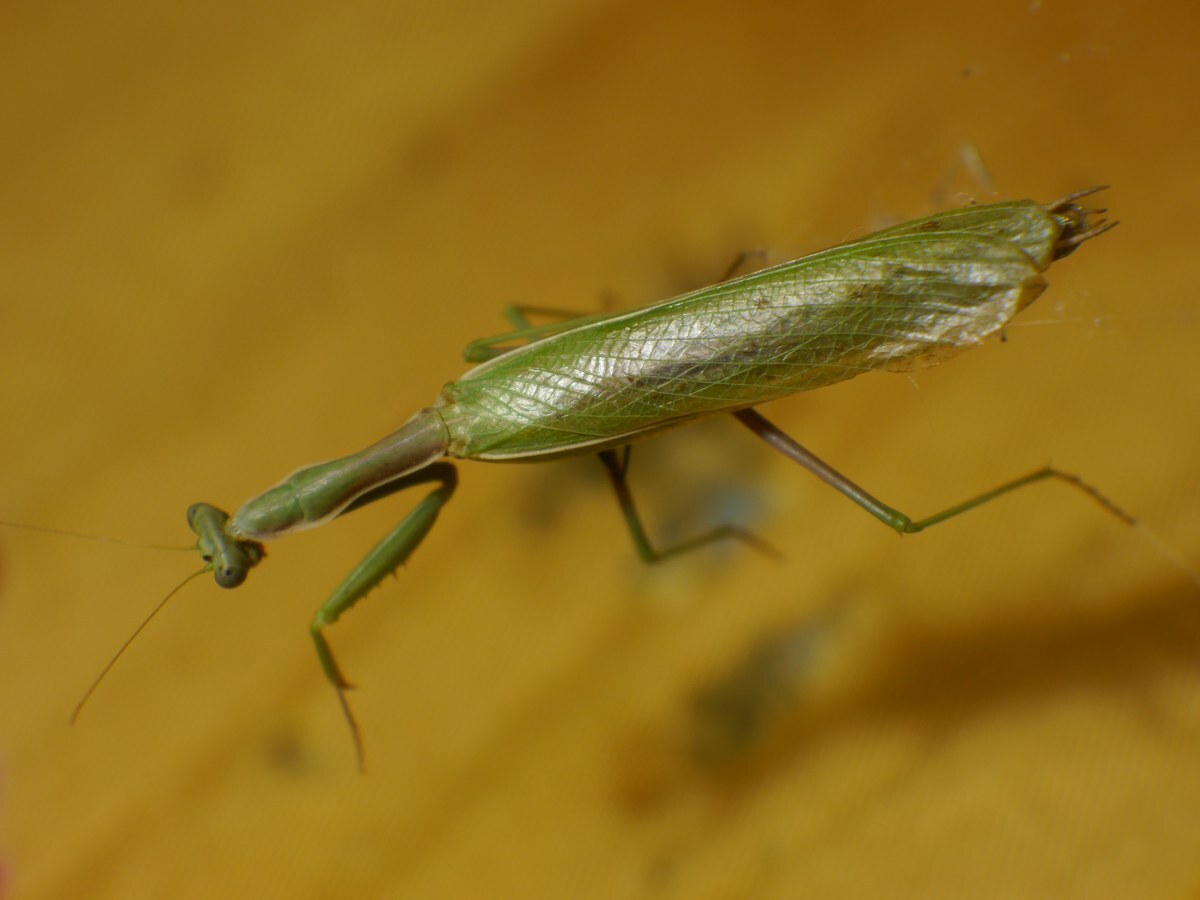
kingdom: Animalia
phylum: Arthropoda
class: Insecta
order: Mantodea
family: Eremiaphilidae
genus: Iris
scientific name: Iris polystictica
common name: Dot-winged mantis
